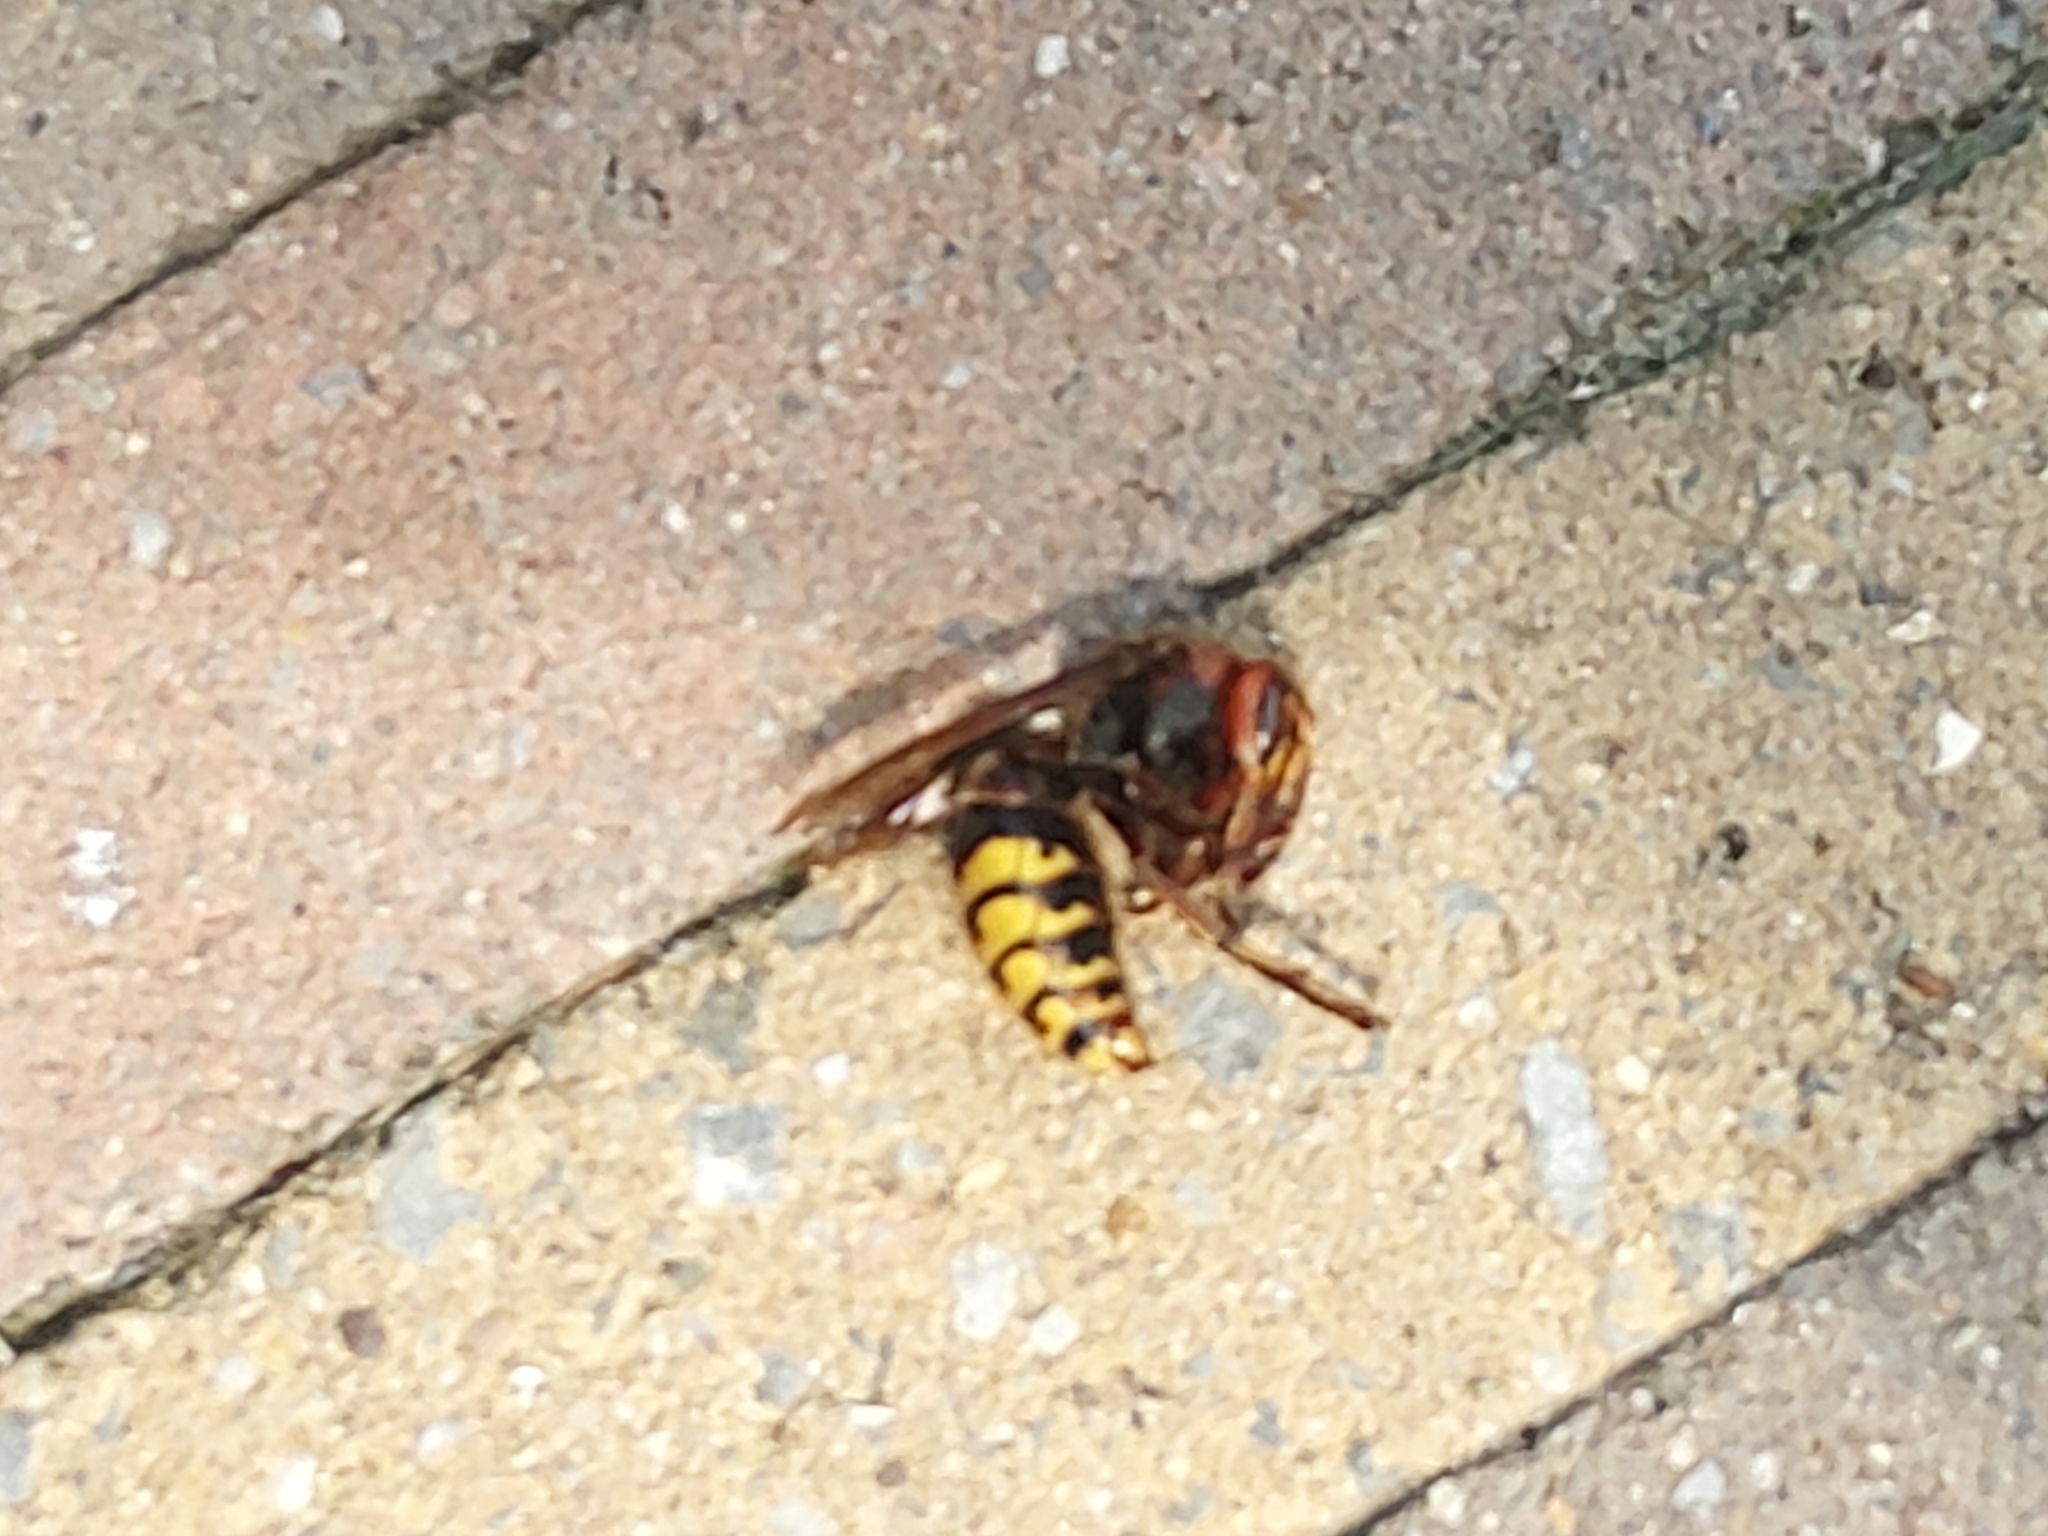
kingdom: Animalia
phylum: Arthropoda
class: Insecta
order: Hymenoptera
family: Vespidae
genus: Vespa
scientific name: Vespa crabro
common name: Hornet
